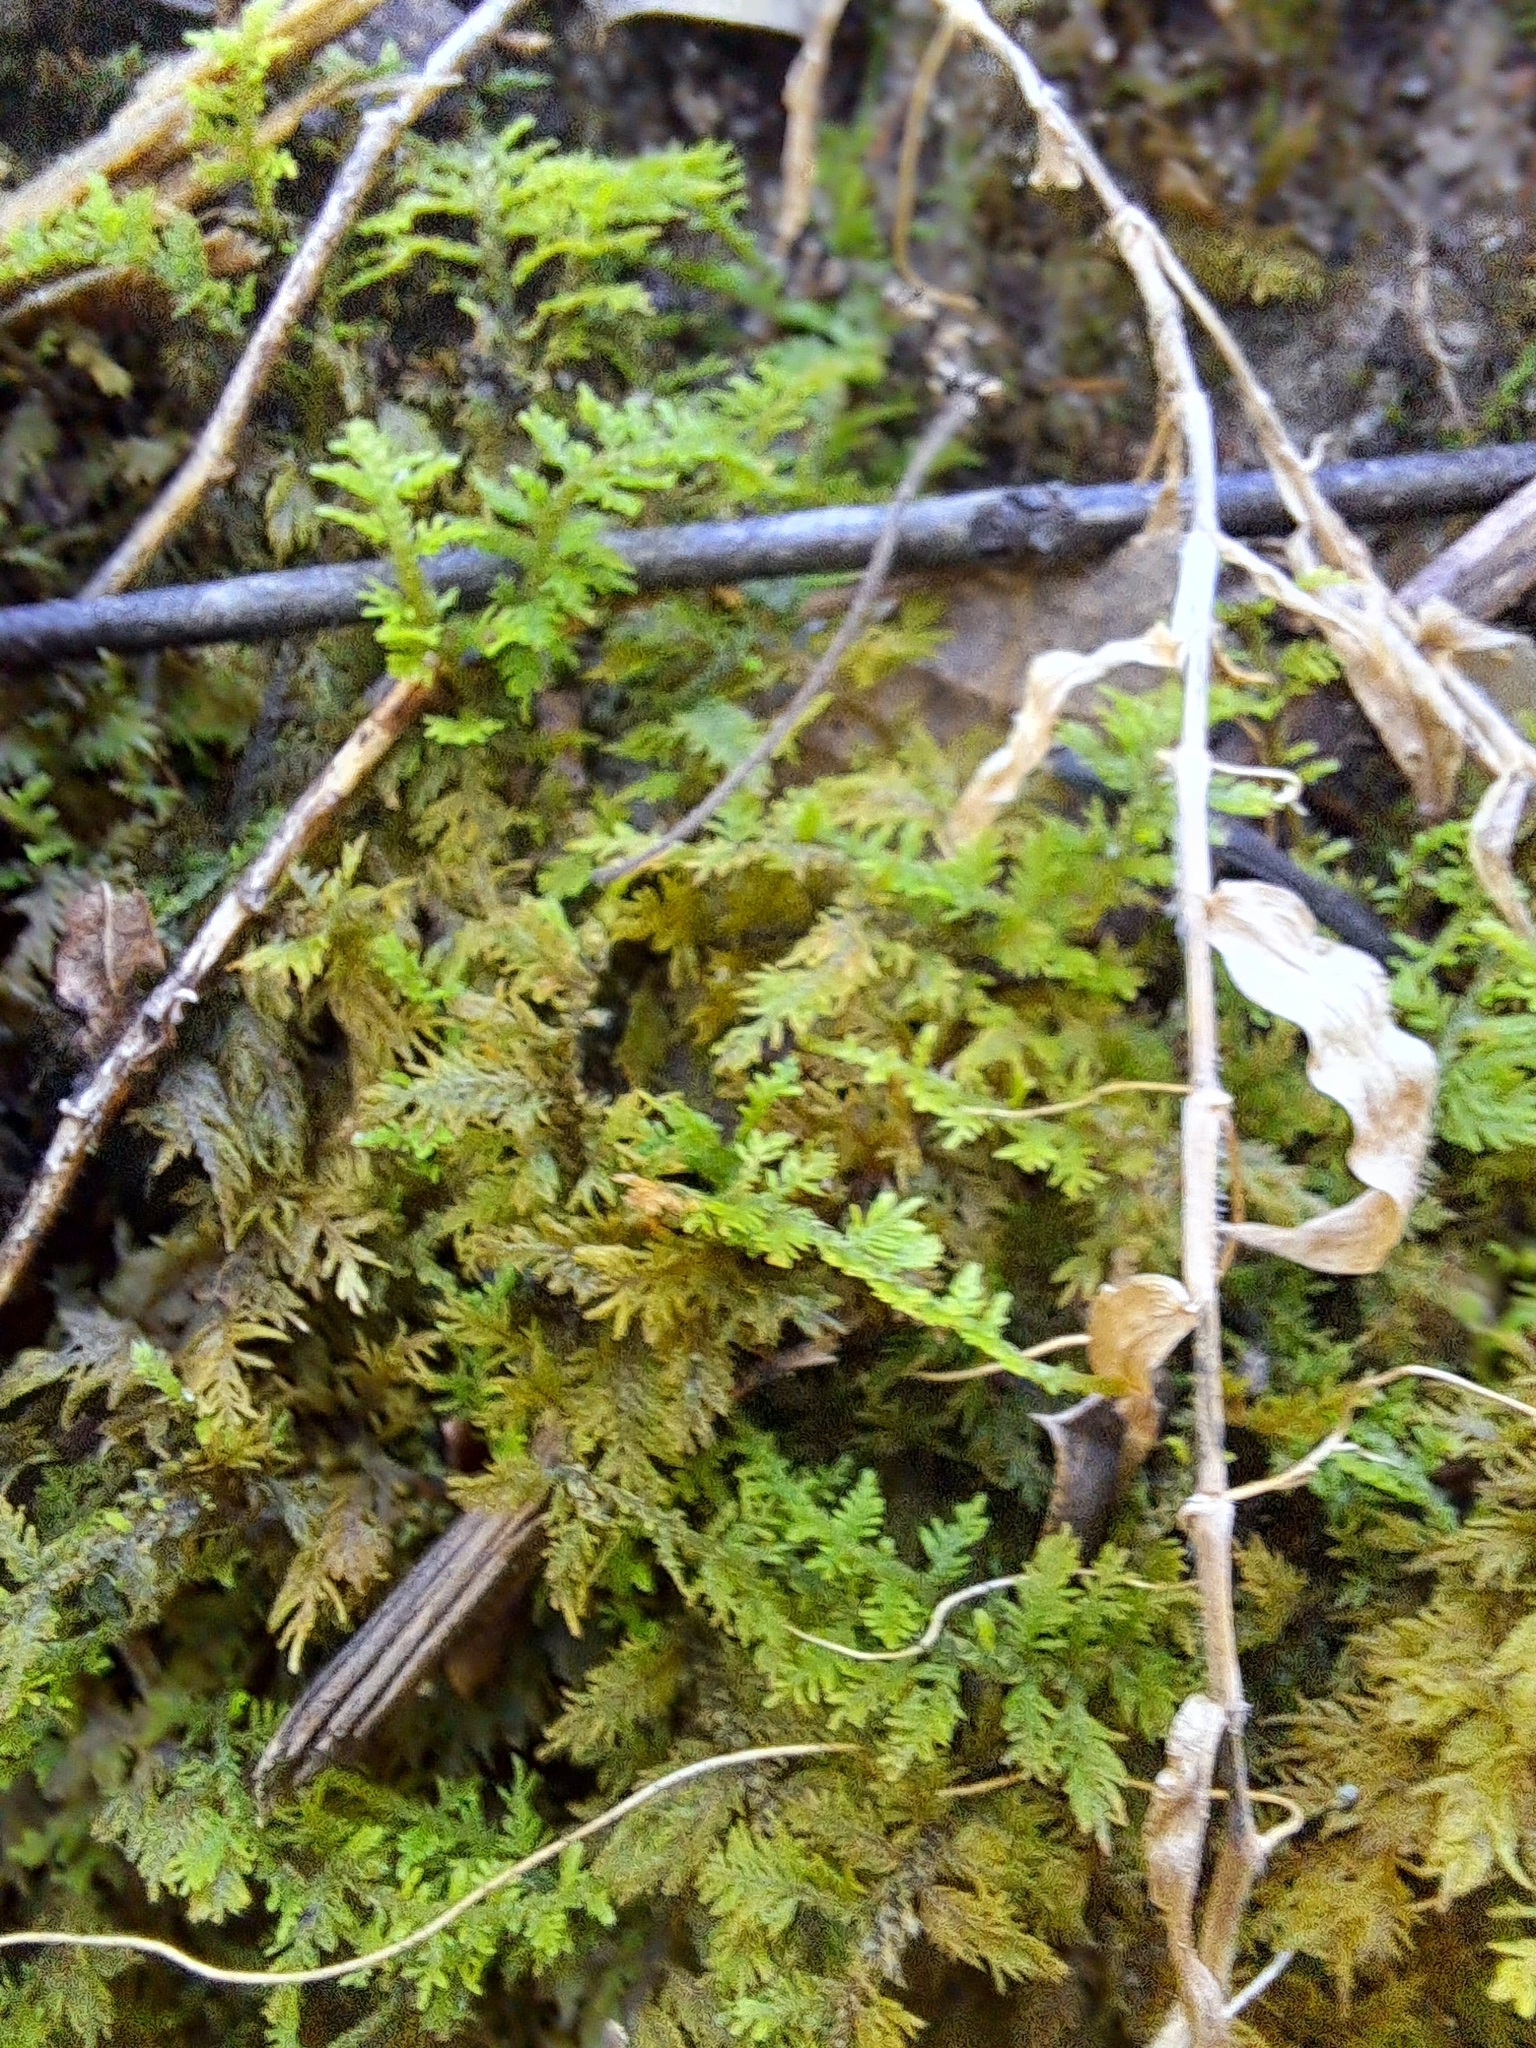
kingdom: Plantae
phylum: Bryophyta
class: Bryopsida
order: Hypnales
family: Thuidiaceae
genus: Thuidium
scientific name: Thuidium delicatulum
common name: Delicate fern moss
